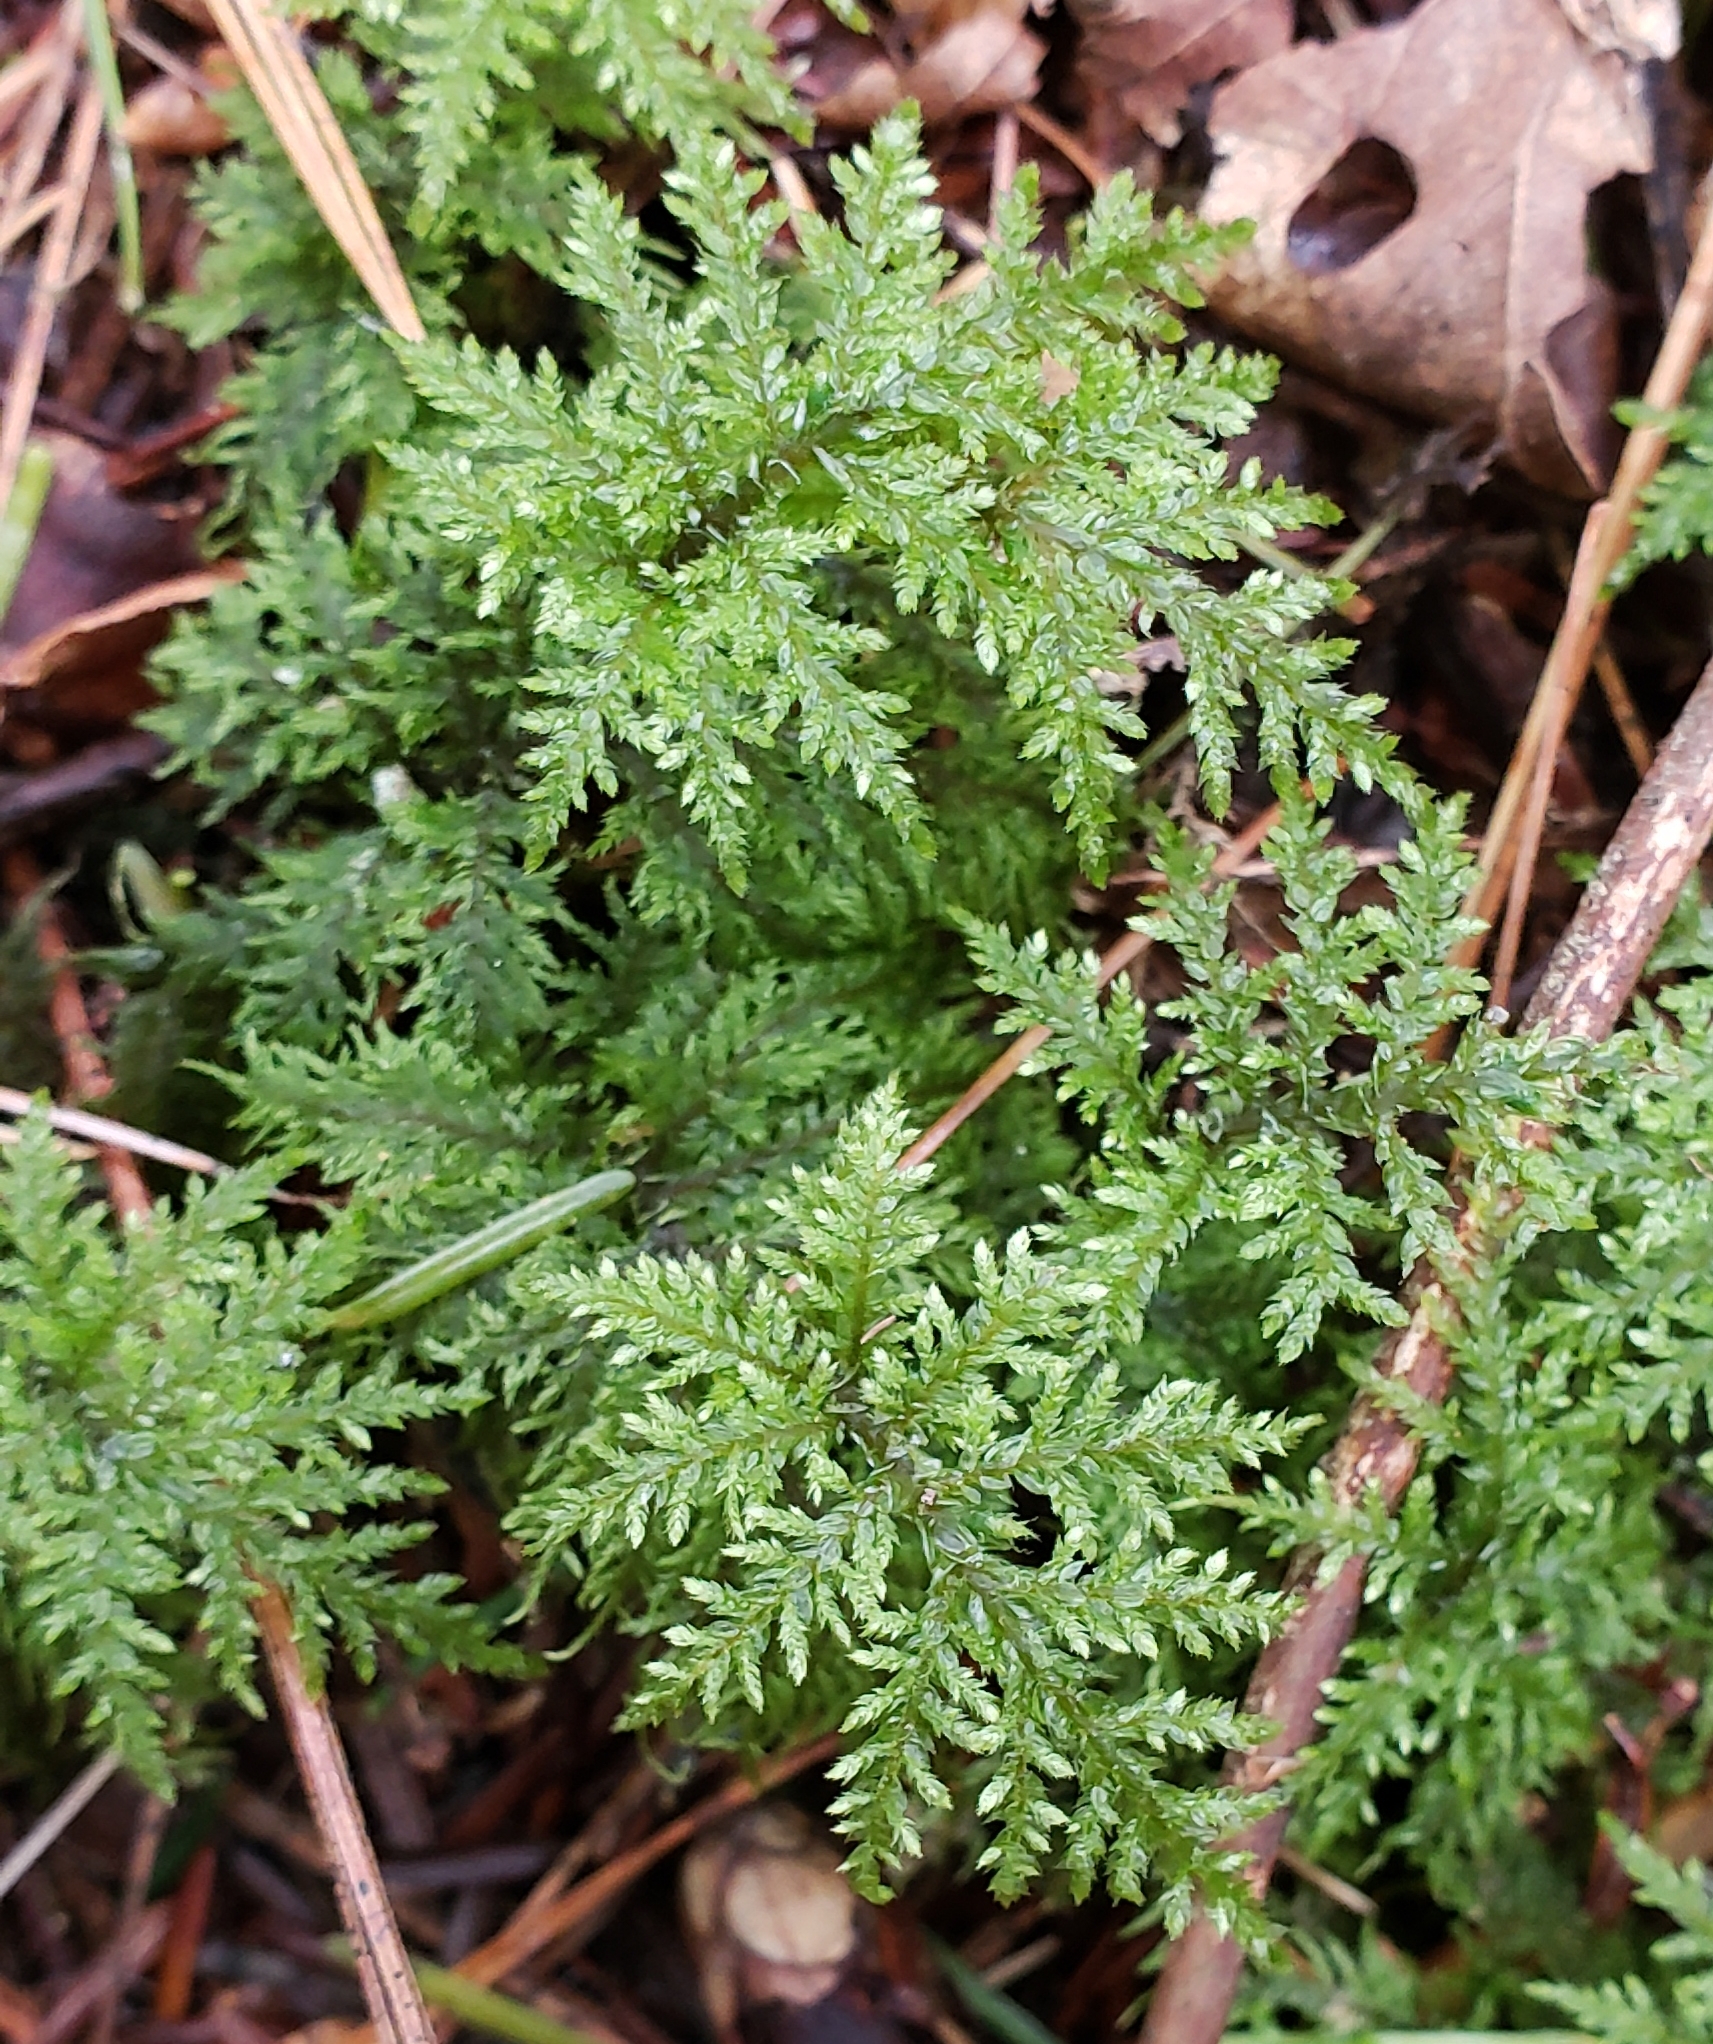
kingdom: Plantae
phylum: Bryophyta
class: Bryopsida
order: Hypnales
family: Hylocomiaceae
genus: Hylocomium
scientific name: Hylocomium splendens
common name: Stairstep moss
